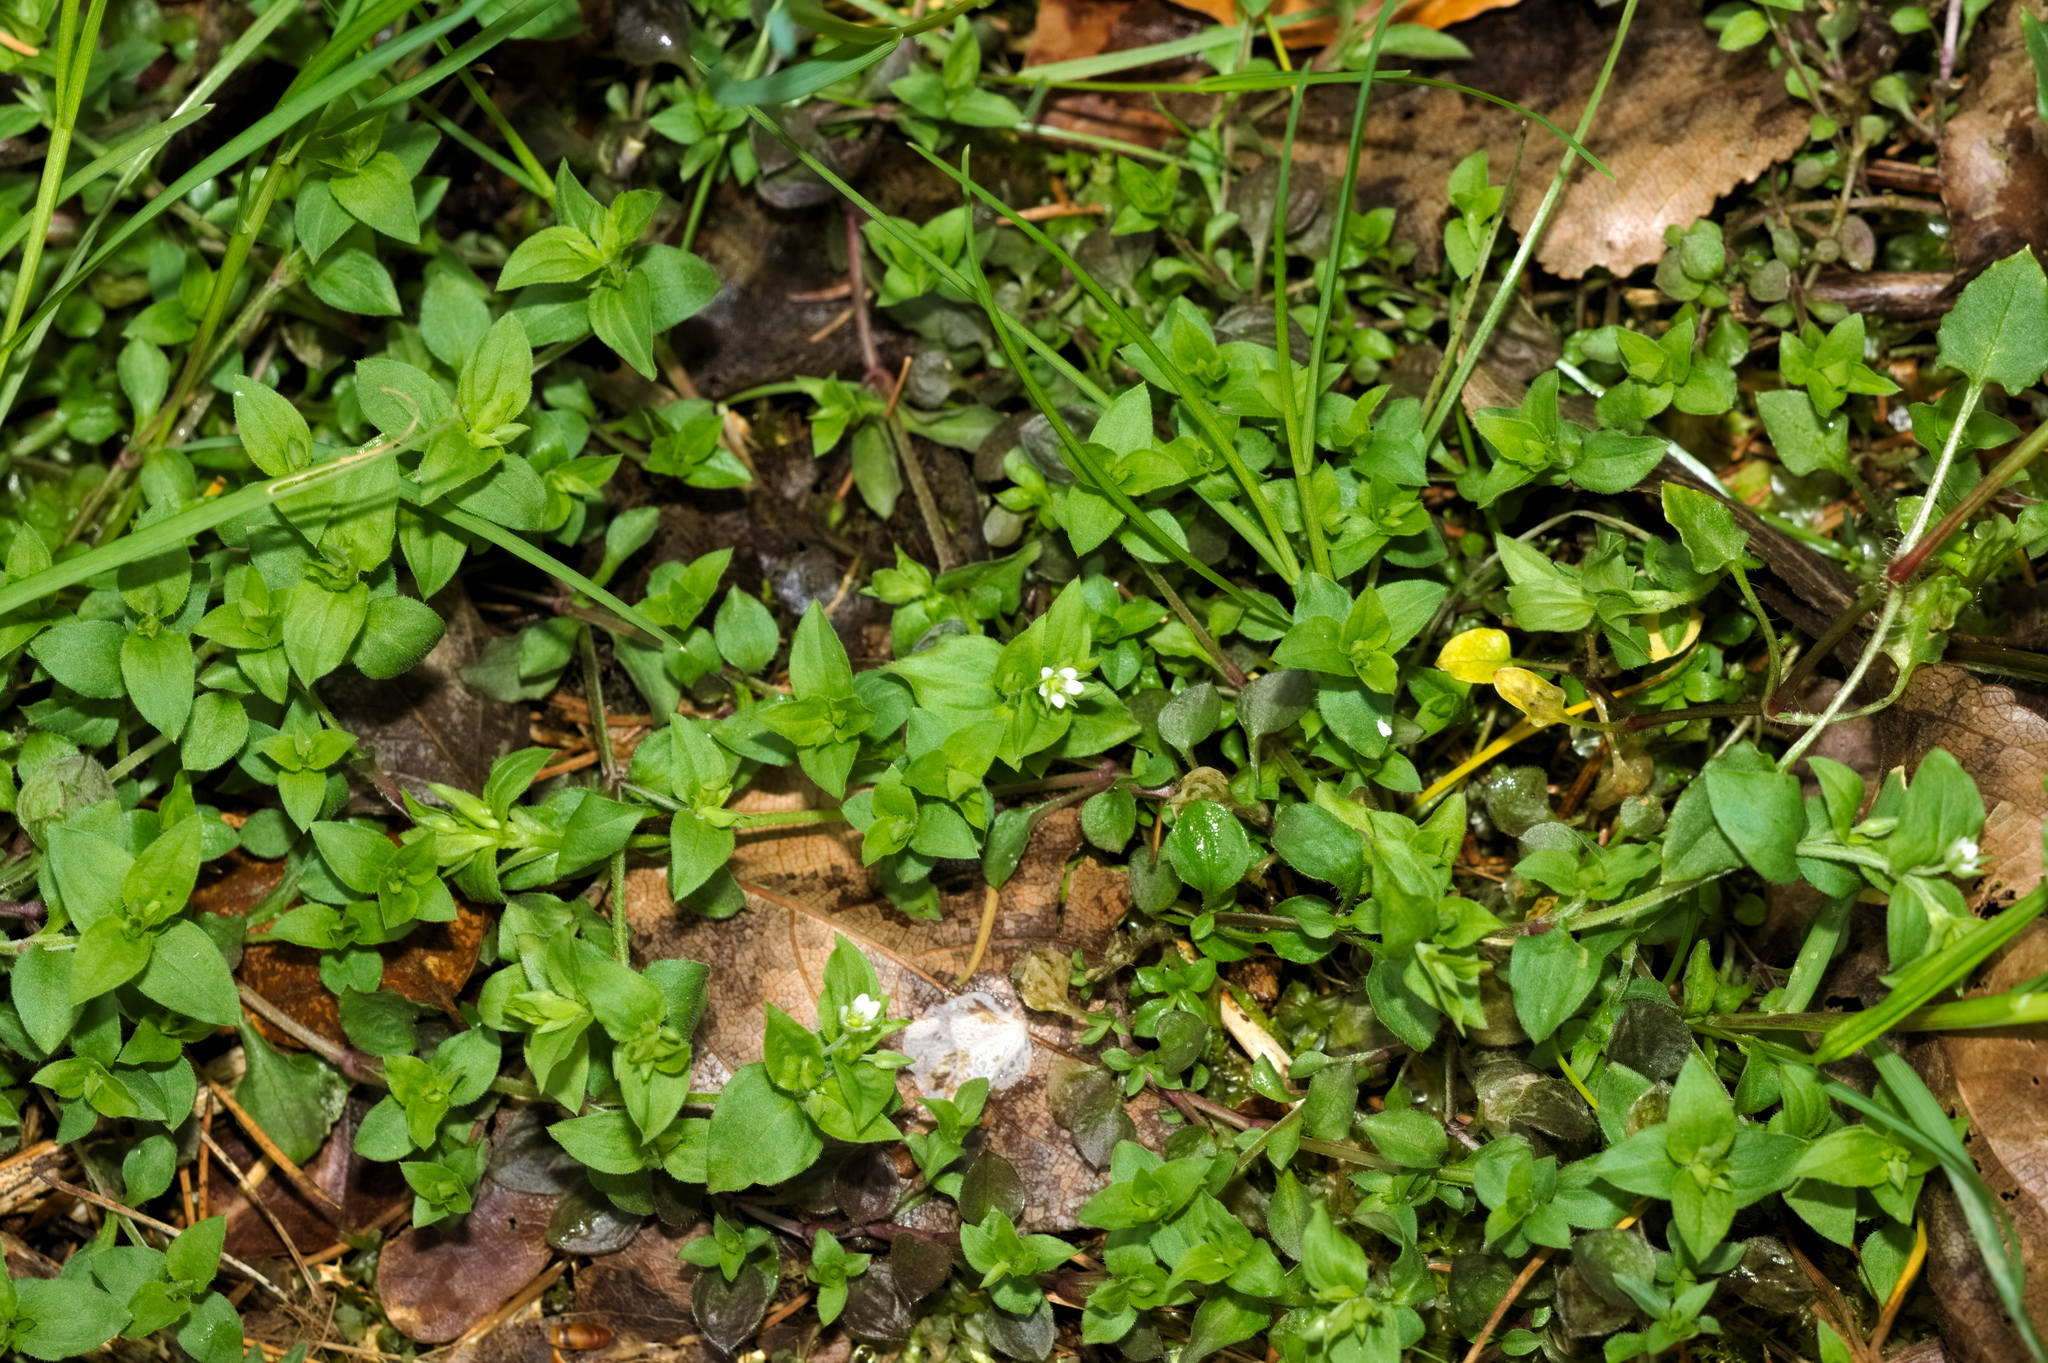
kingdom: Plantae
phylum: Tracheophyta
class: Magnoliopsida
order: Caryophyllales
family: Caryophyllaceae
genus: Moehringia
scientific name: Moehringia trinervia
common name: Three-nerved sandwort
